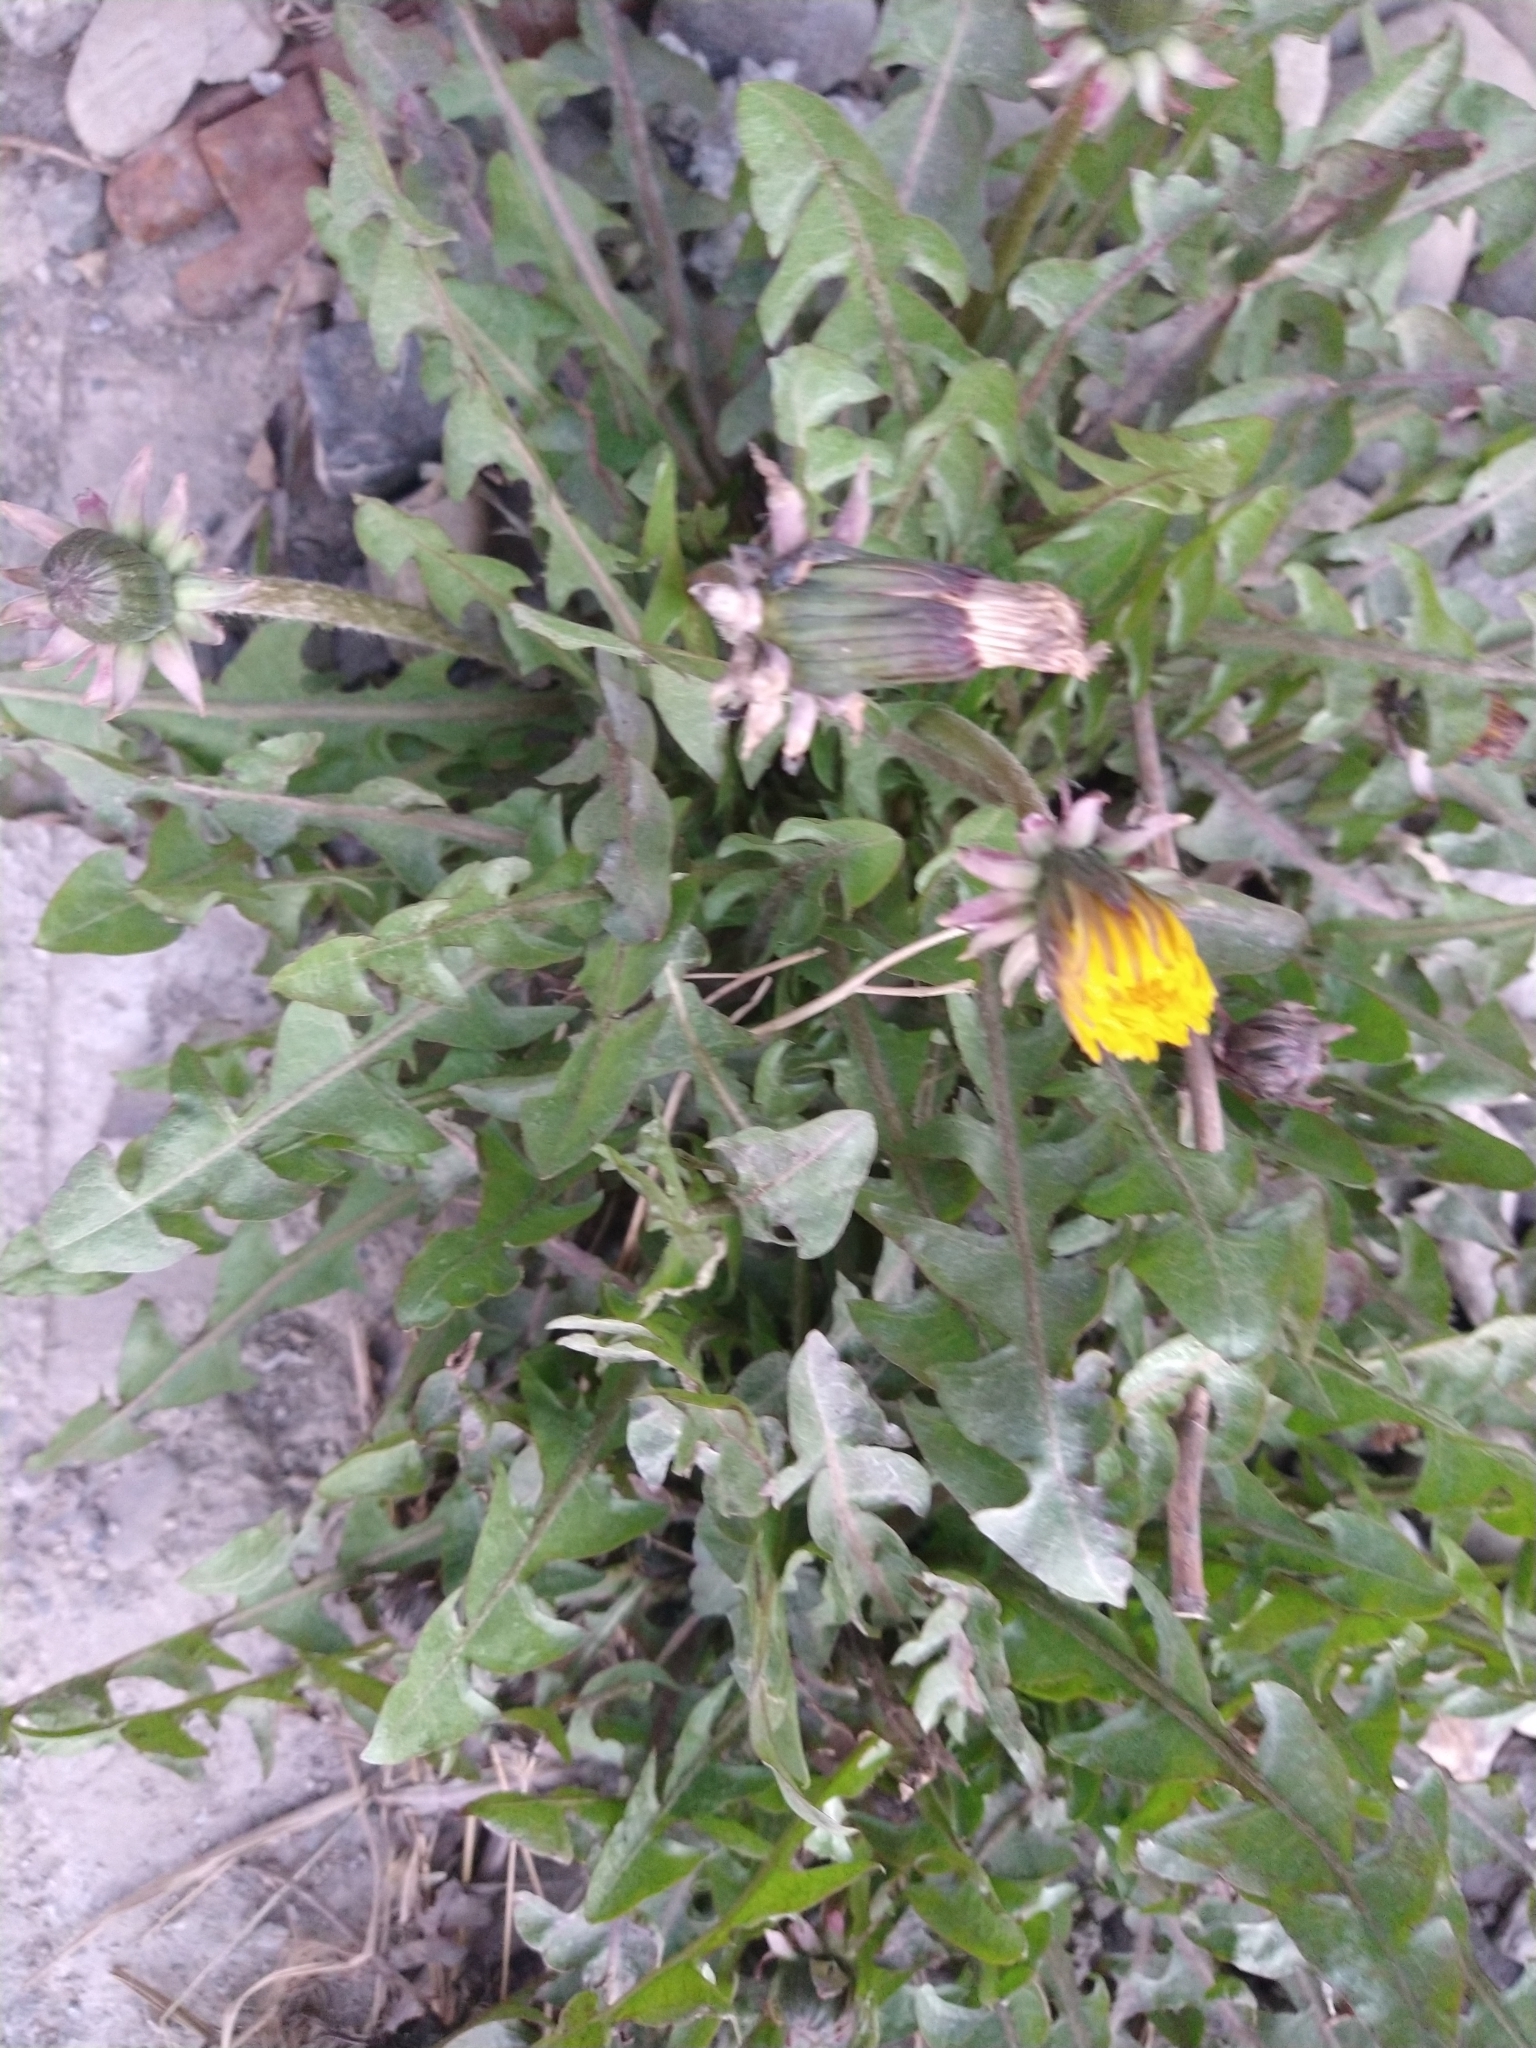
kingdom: Plantae
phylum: Tracheophyta
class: Magnoliopsida
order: Asterales
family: Asteraceae
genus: Taraxacum
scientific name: Taraxacum officinale
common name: Common dandelion
